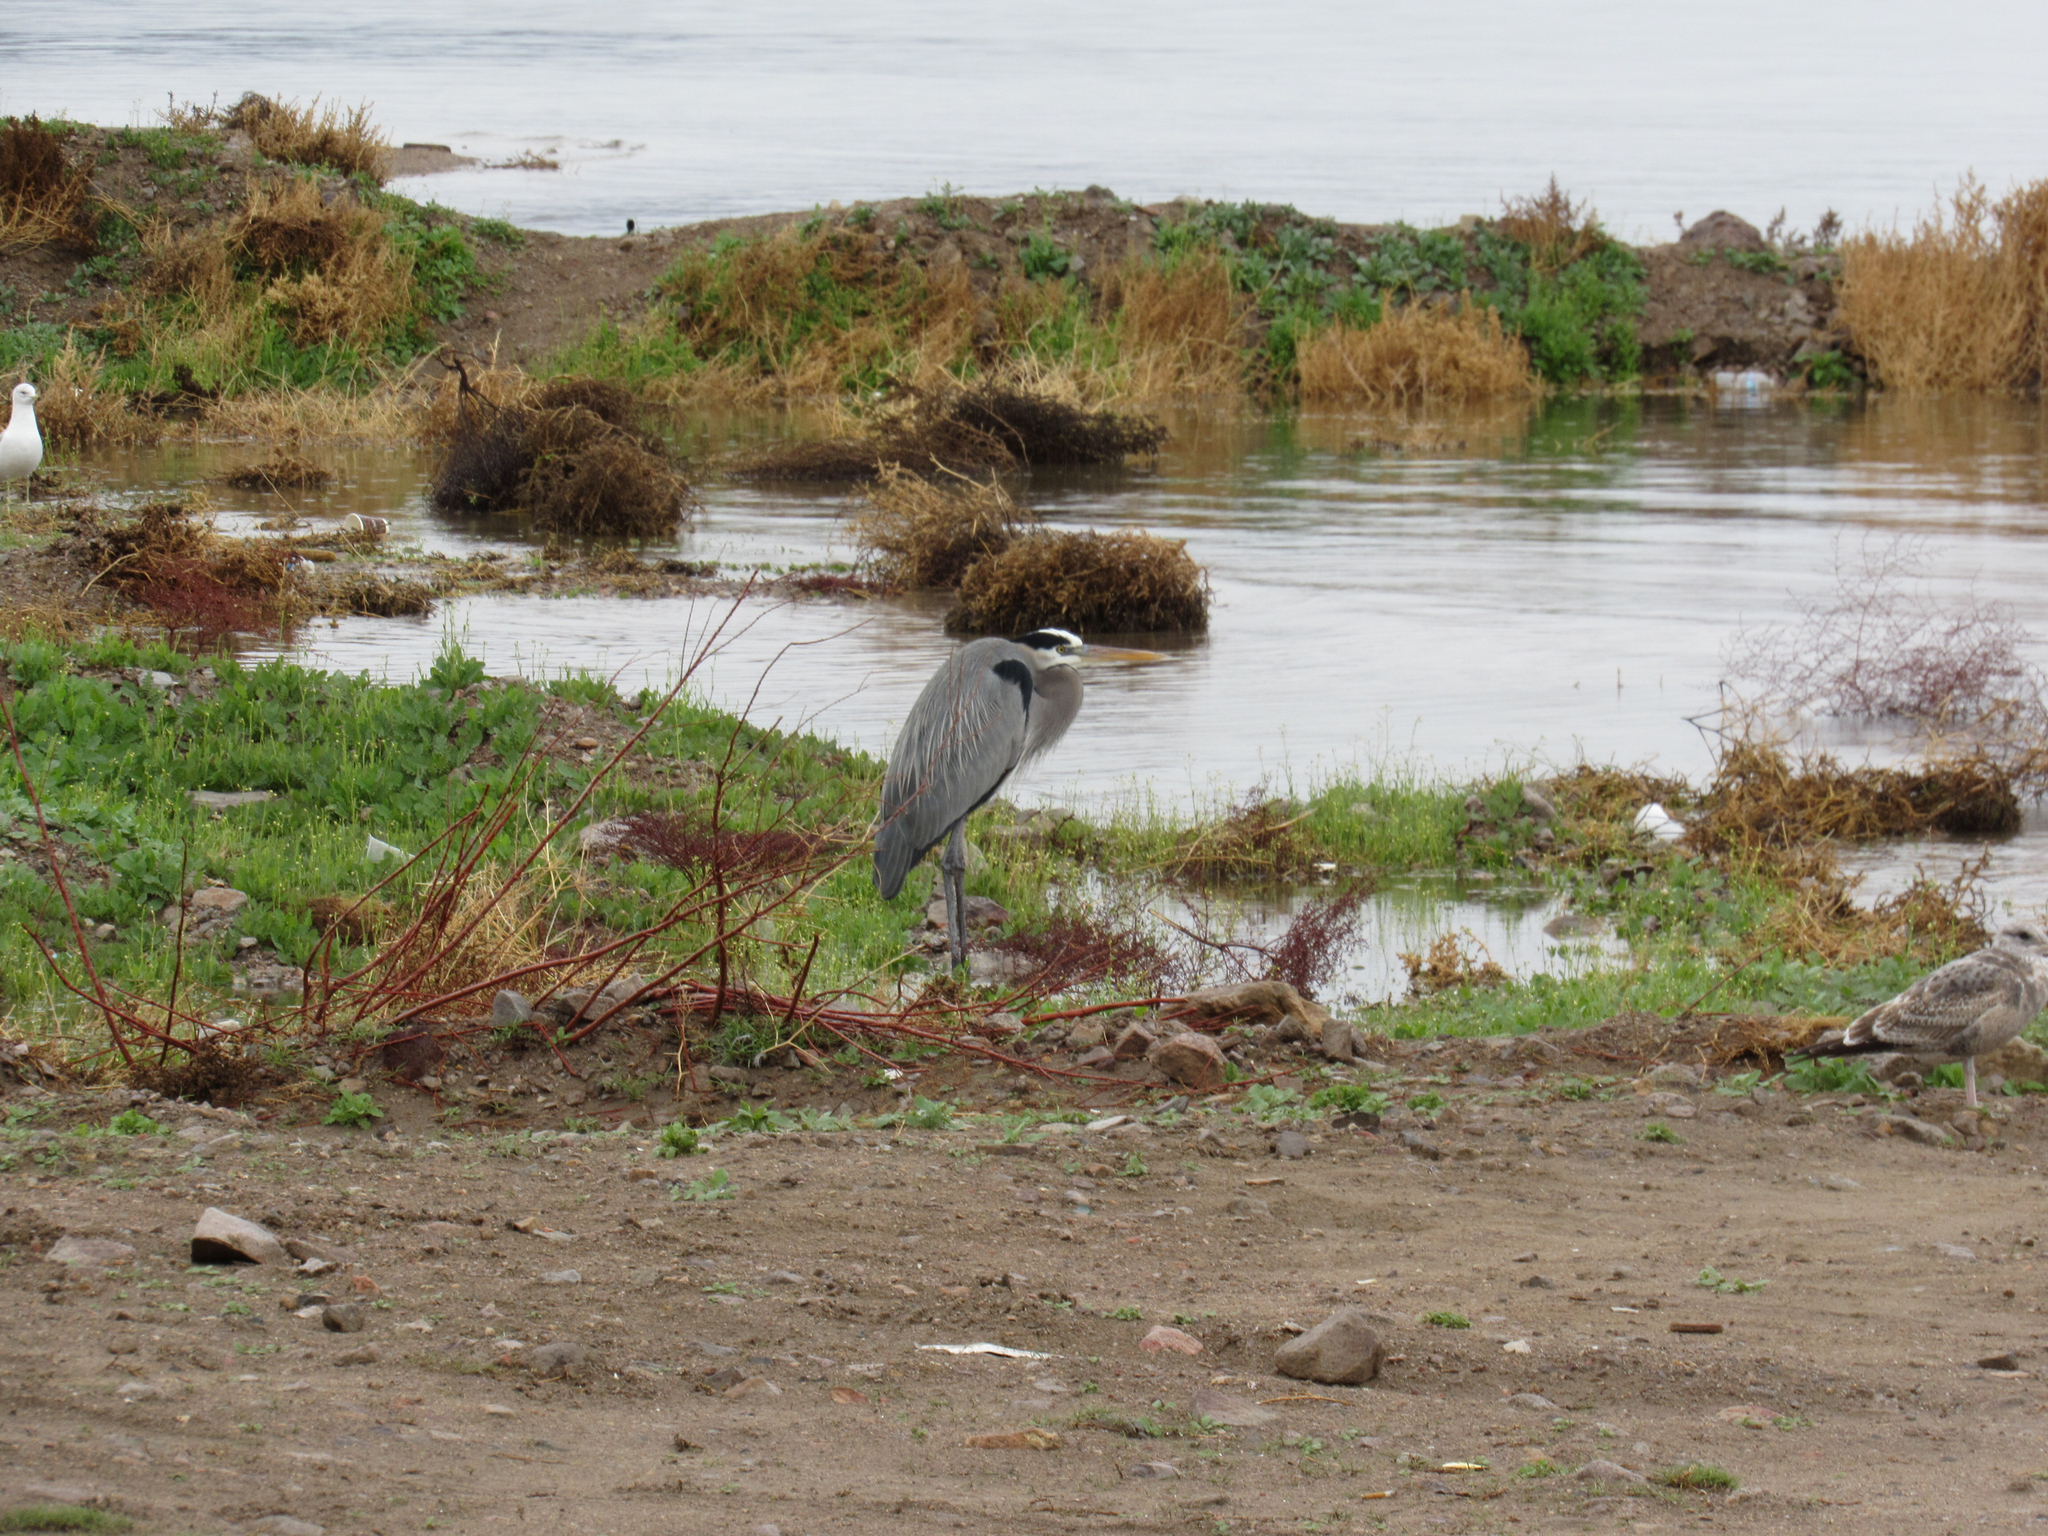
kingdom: Animalia
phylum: Chordata
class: Aves
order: Pelecaniformes
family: Ardeidae
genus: Ardea
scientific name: Ardea herodias
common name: Great blue heron
